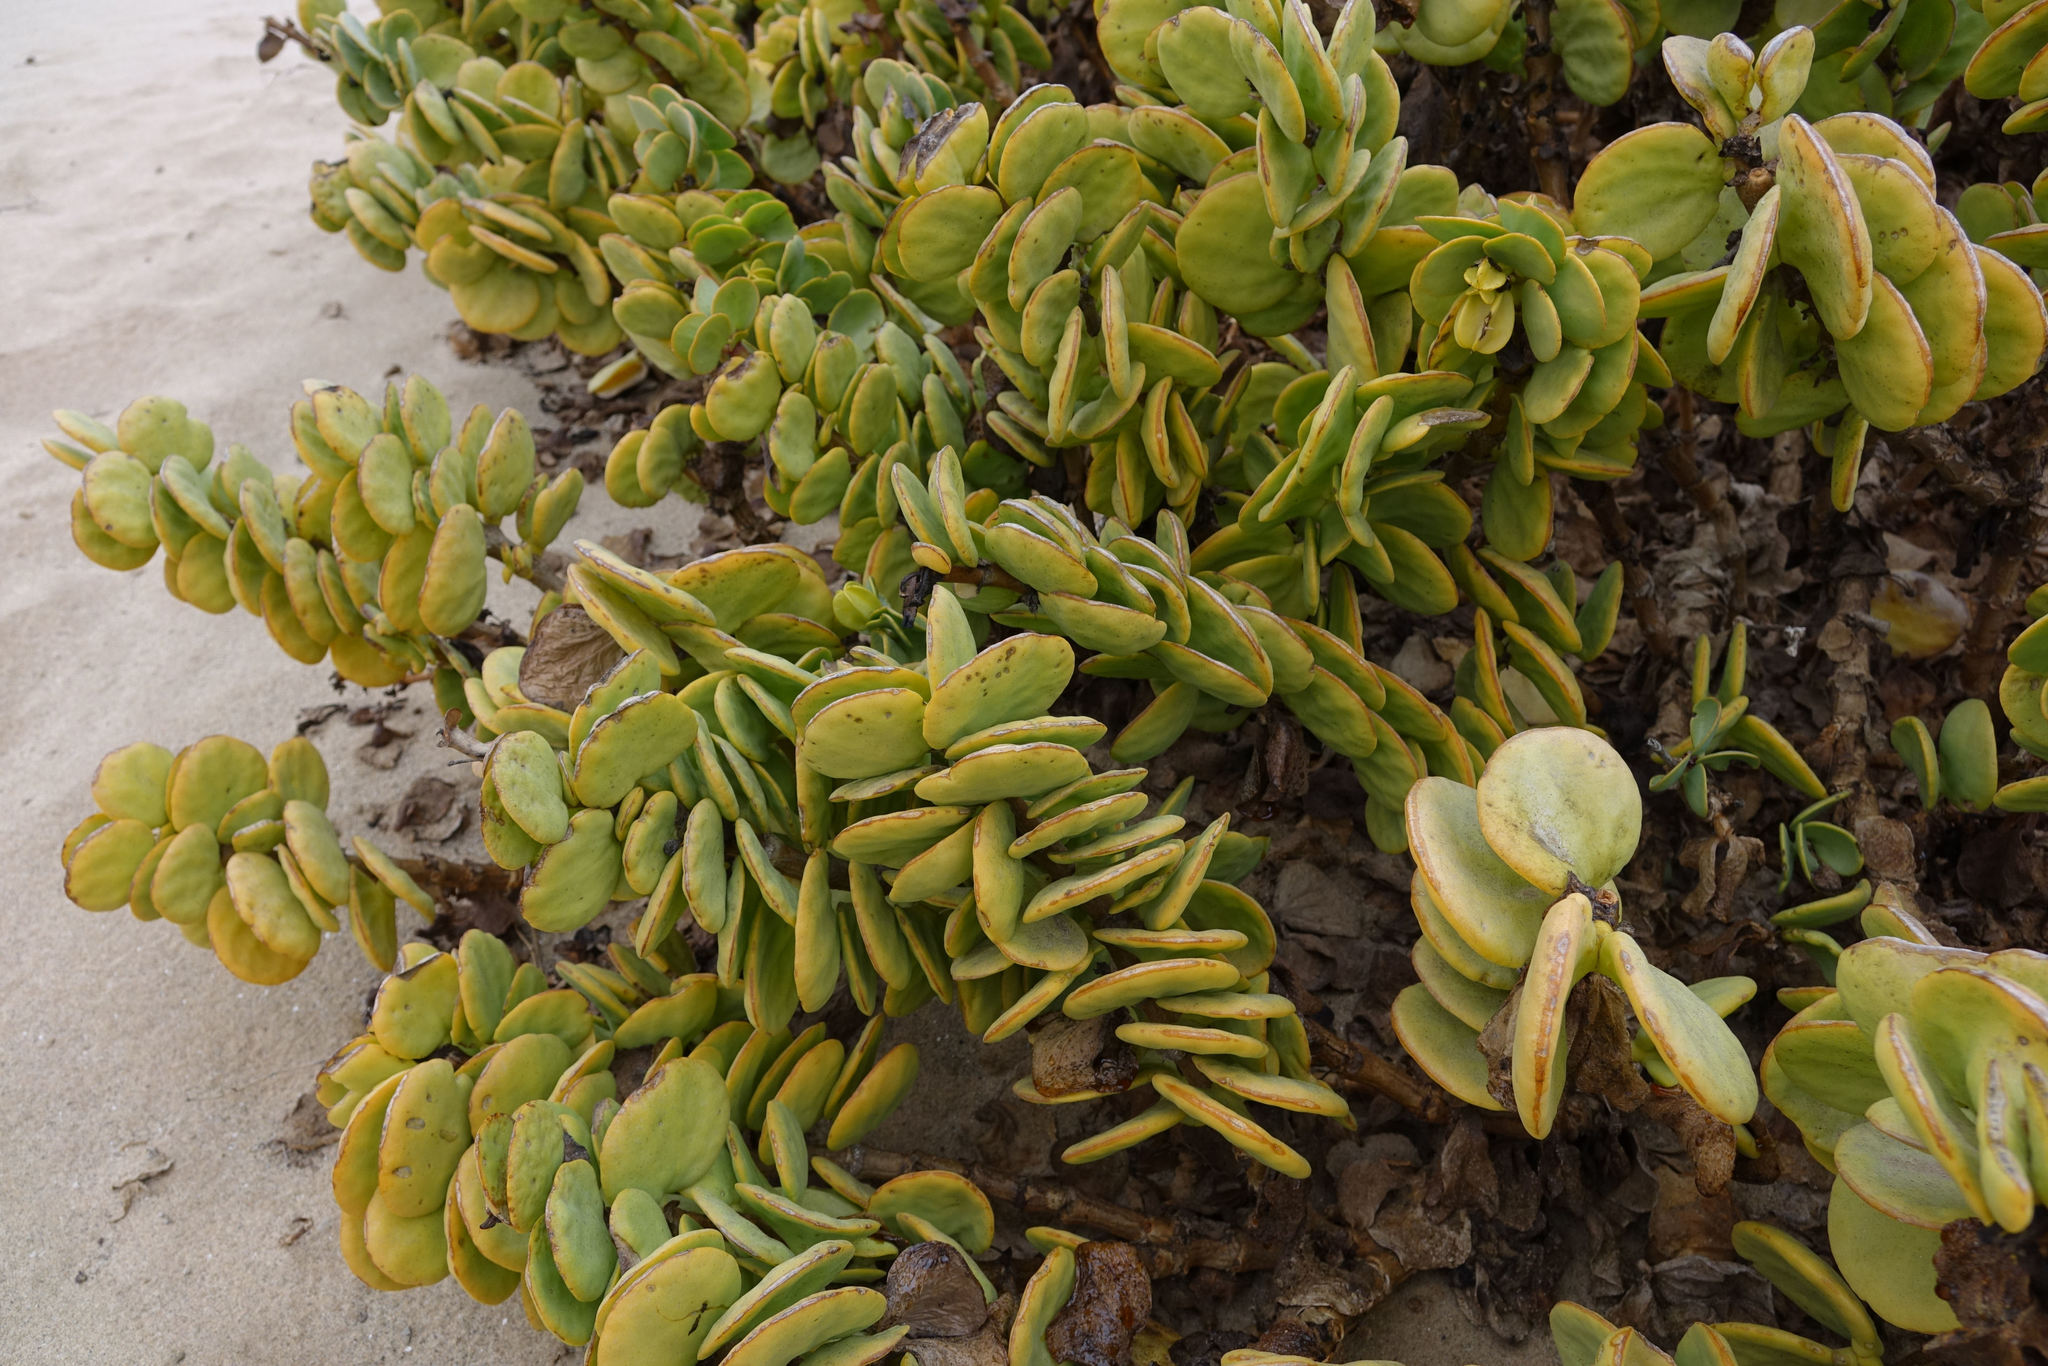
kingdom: Plantae
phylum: Tracheophyta
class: Magnoliopsida
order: Zygophyllales
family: Zygophyllaceae
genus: Tetraena
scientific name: Tetraena stapfii
